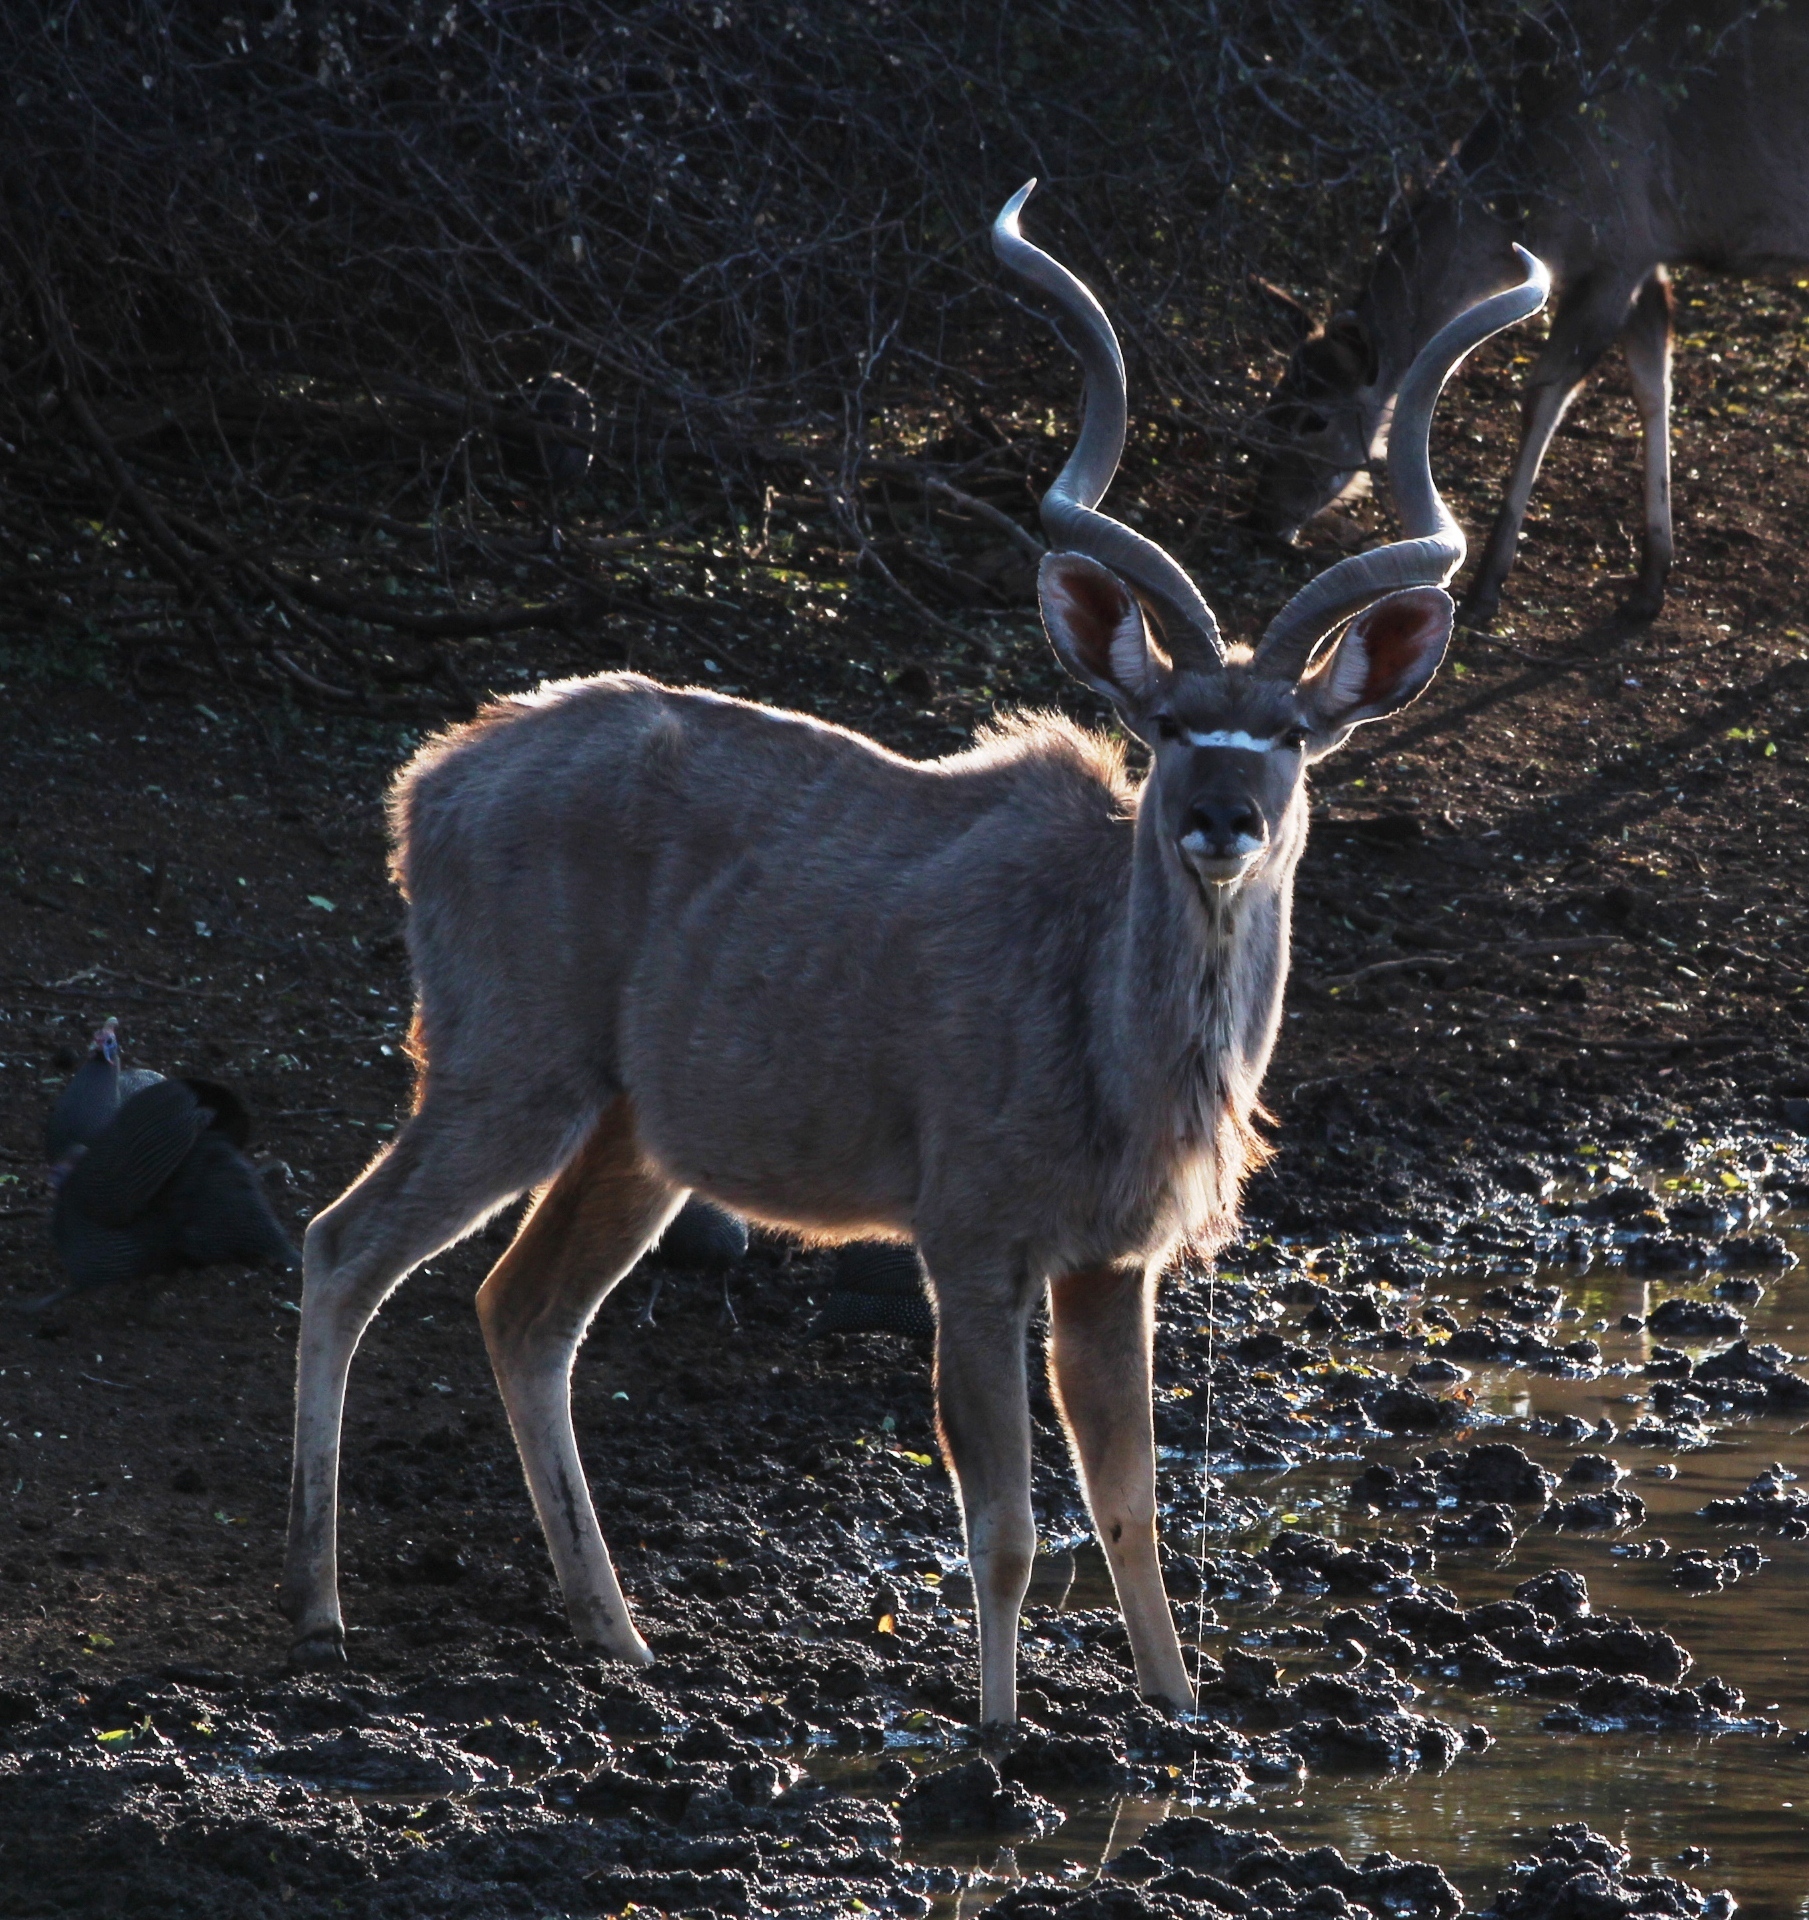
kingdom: Animalia
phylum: Chordata
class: Mammalia
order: Artiodactyla
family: Bovidae
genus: Tragelaphus
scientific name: Tragelaphus strepsiceros
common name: Greater kudu
